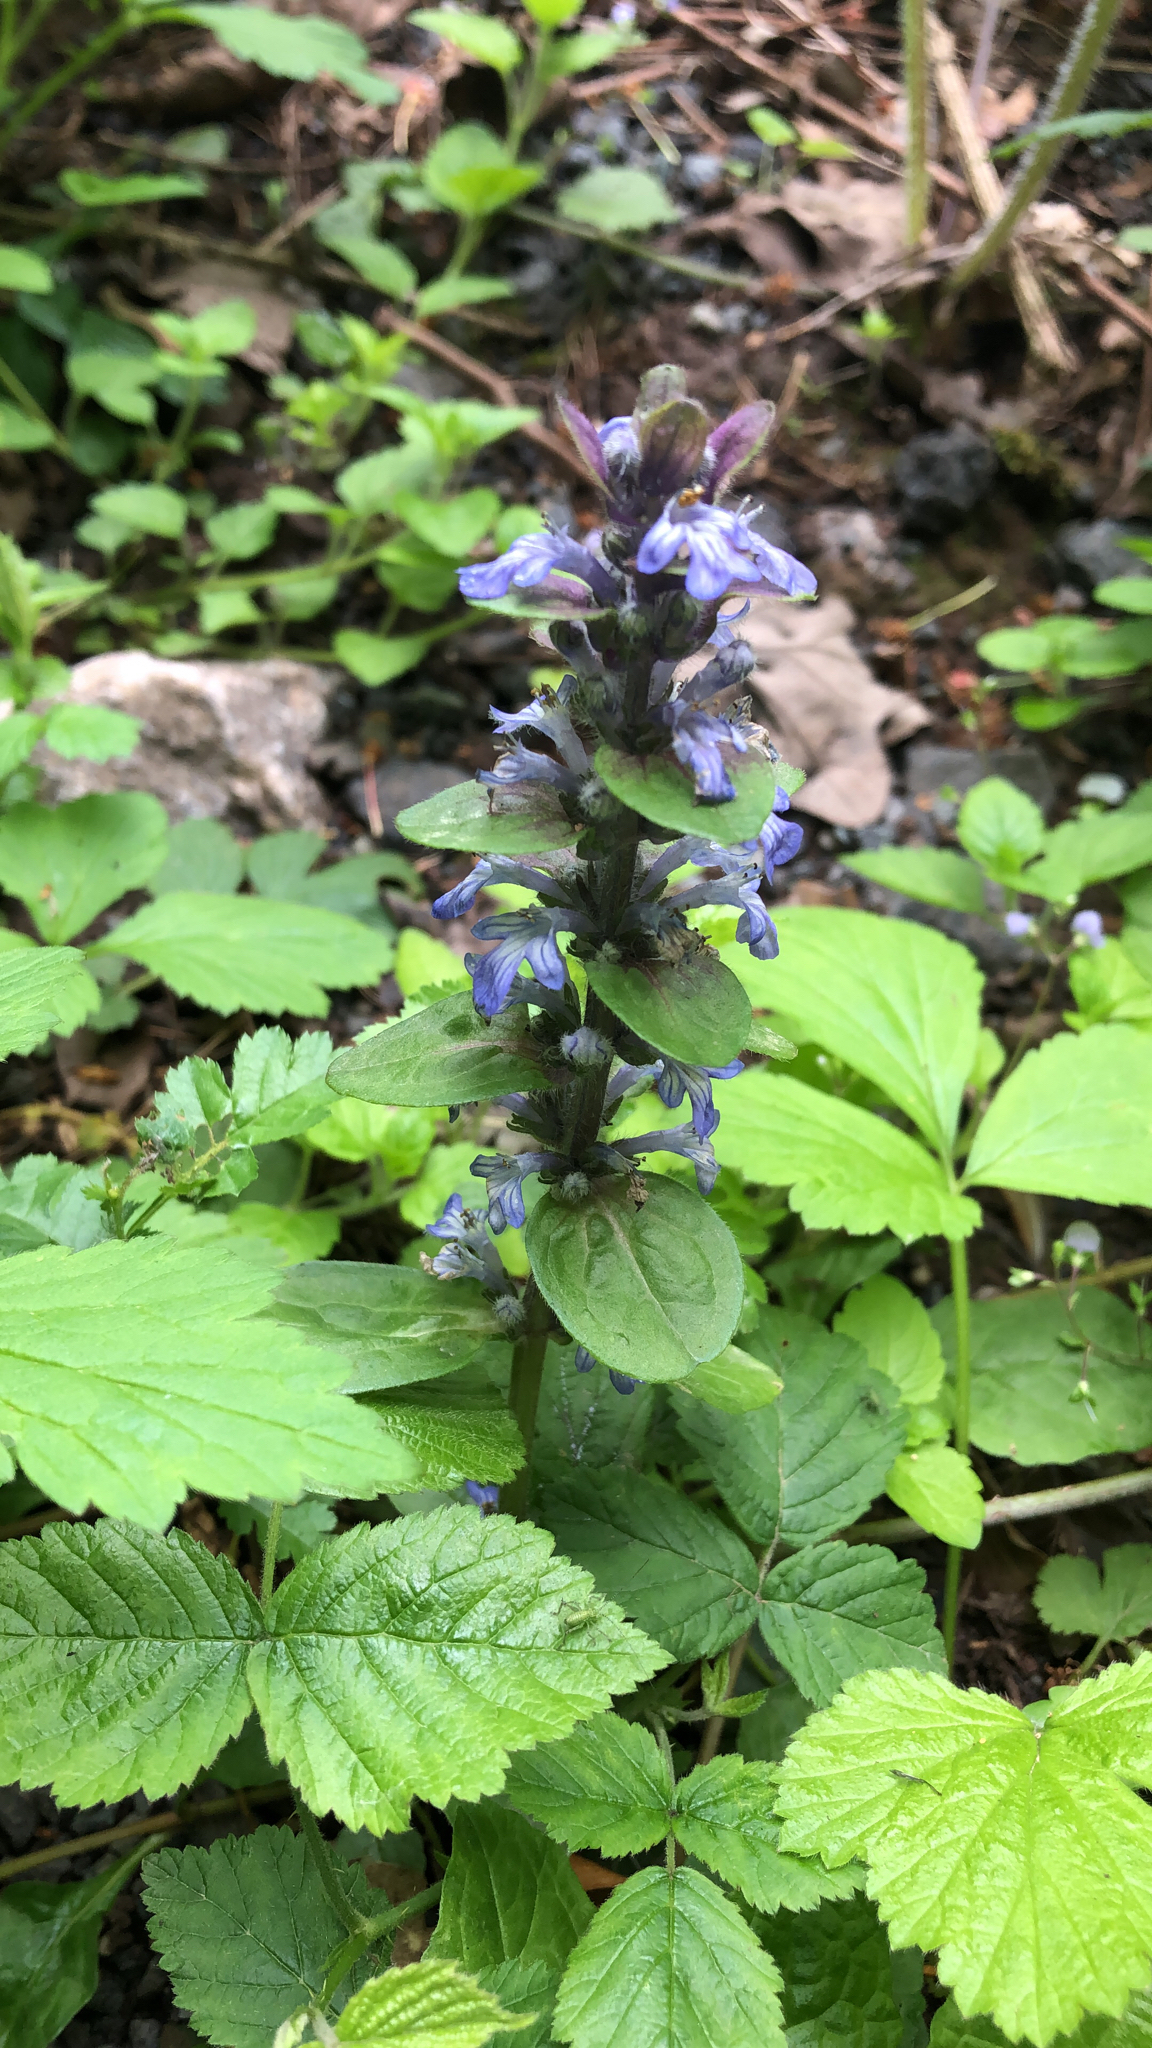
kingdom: Plantae
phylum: Tracheophyta
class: Magnoliopsida
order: Lamiales
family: Lamiaceae
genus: Ajuga
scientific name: Ajuga reptans
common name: Bugle
